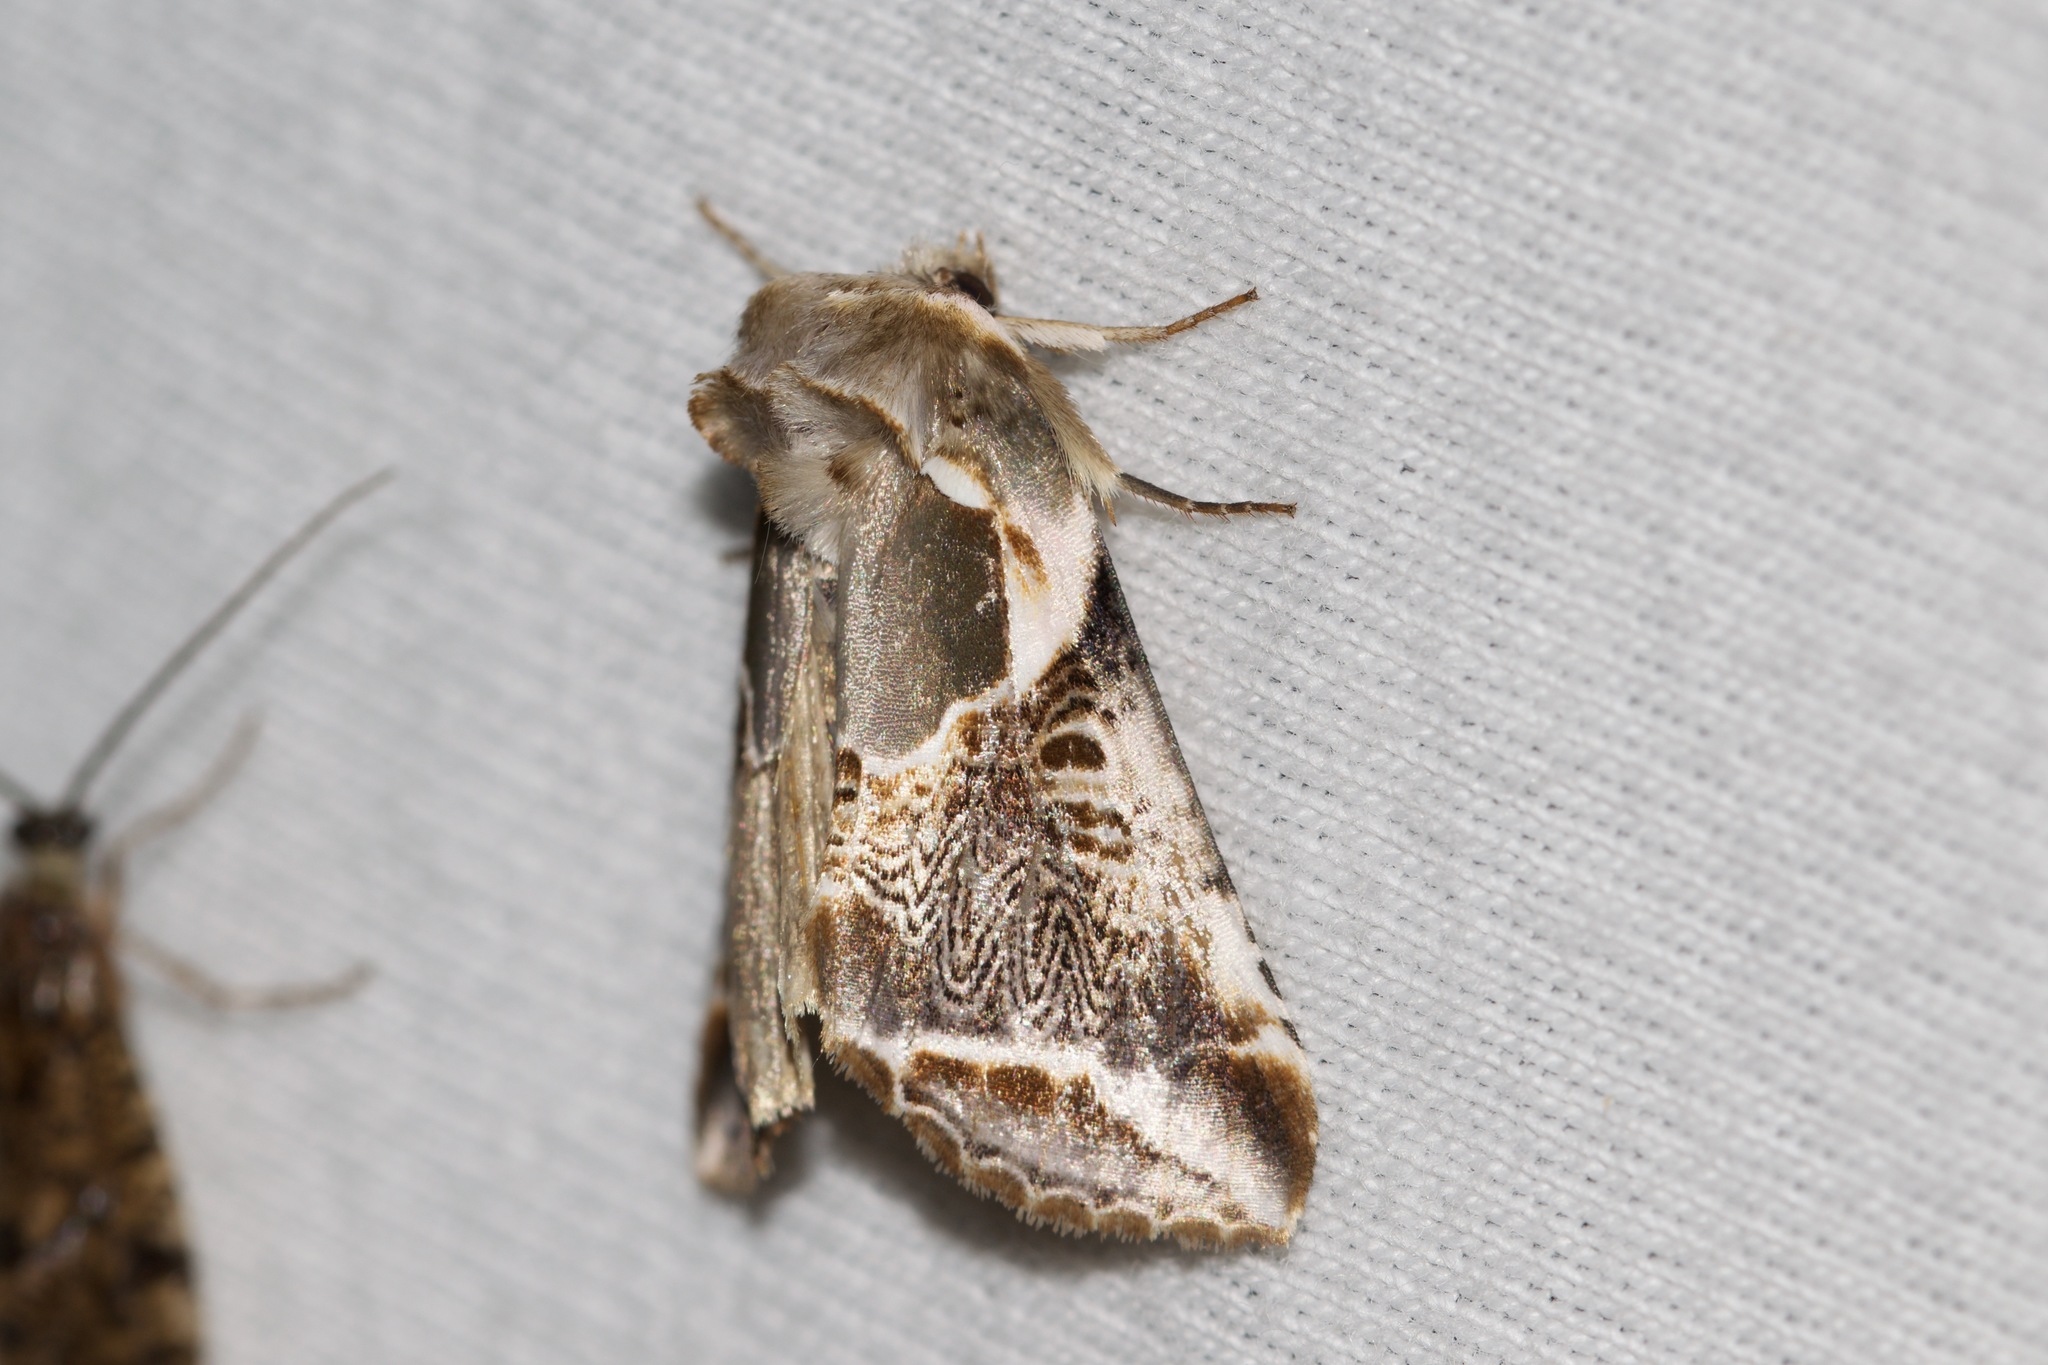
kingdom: Animalia
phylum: Arthropoda
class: Insecta
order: Lepidoptera
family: Drepanidae
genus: Habrosyne
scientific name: Habrosyne scripta
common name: Lettered habrosyne moth
